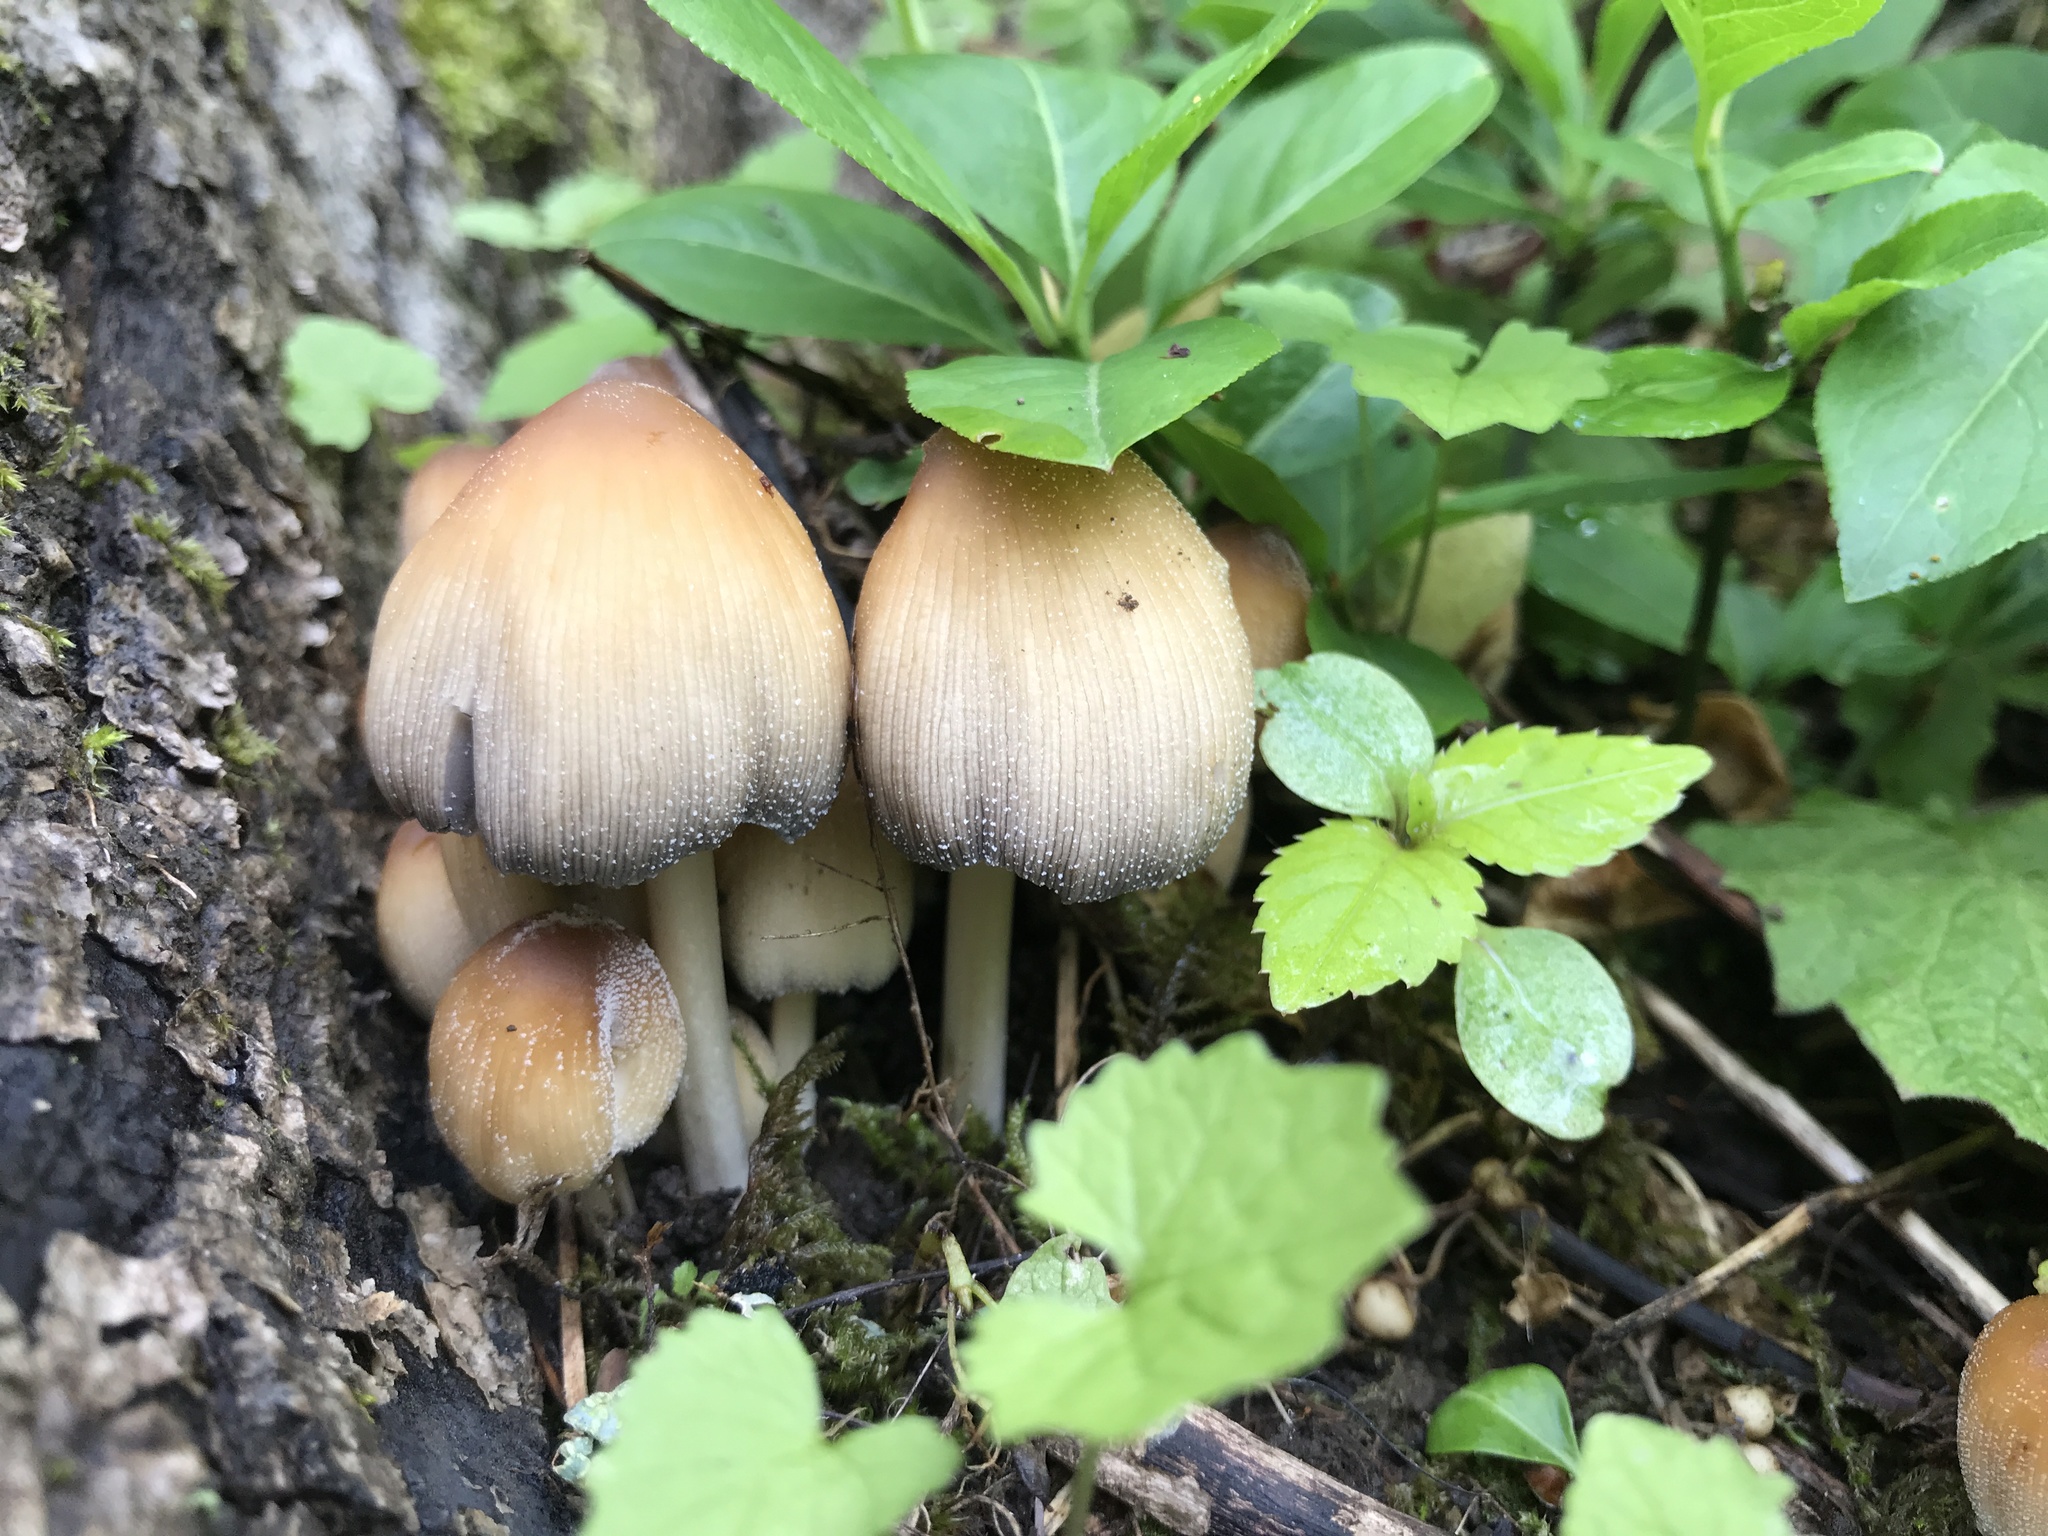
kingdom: Fungi
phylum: Basidiomycota
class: Agaricomycetes
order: Agaricales
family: Psathyrellaceae
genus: Coprinellus
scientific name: Coprinellus micaceus
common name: Glistening ink-cap
